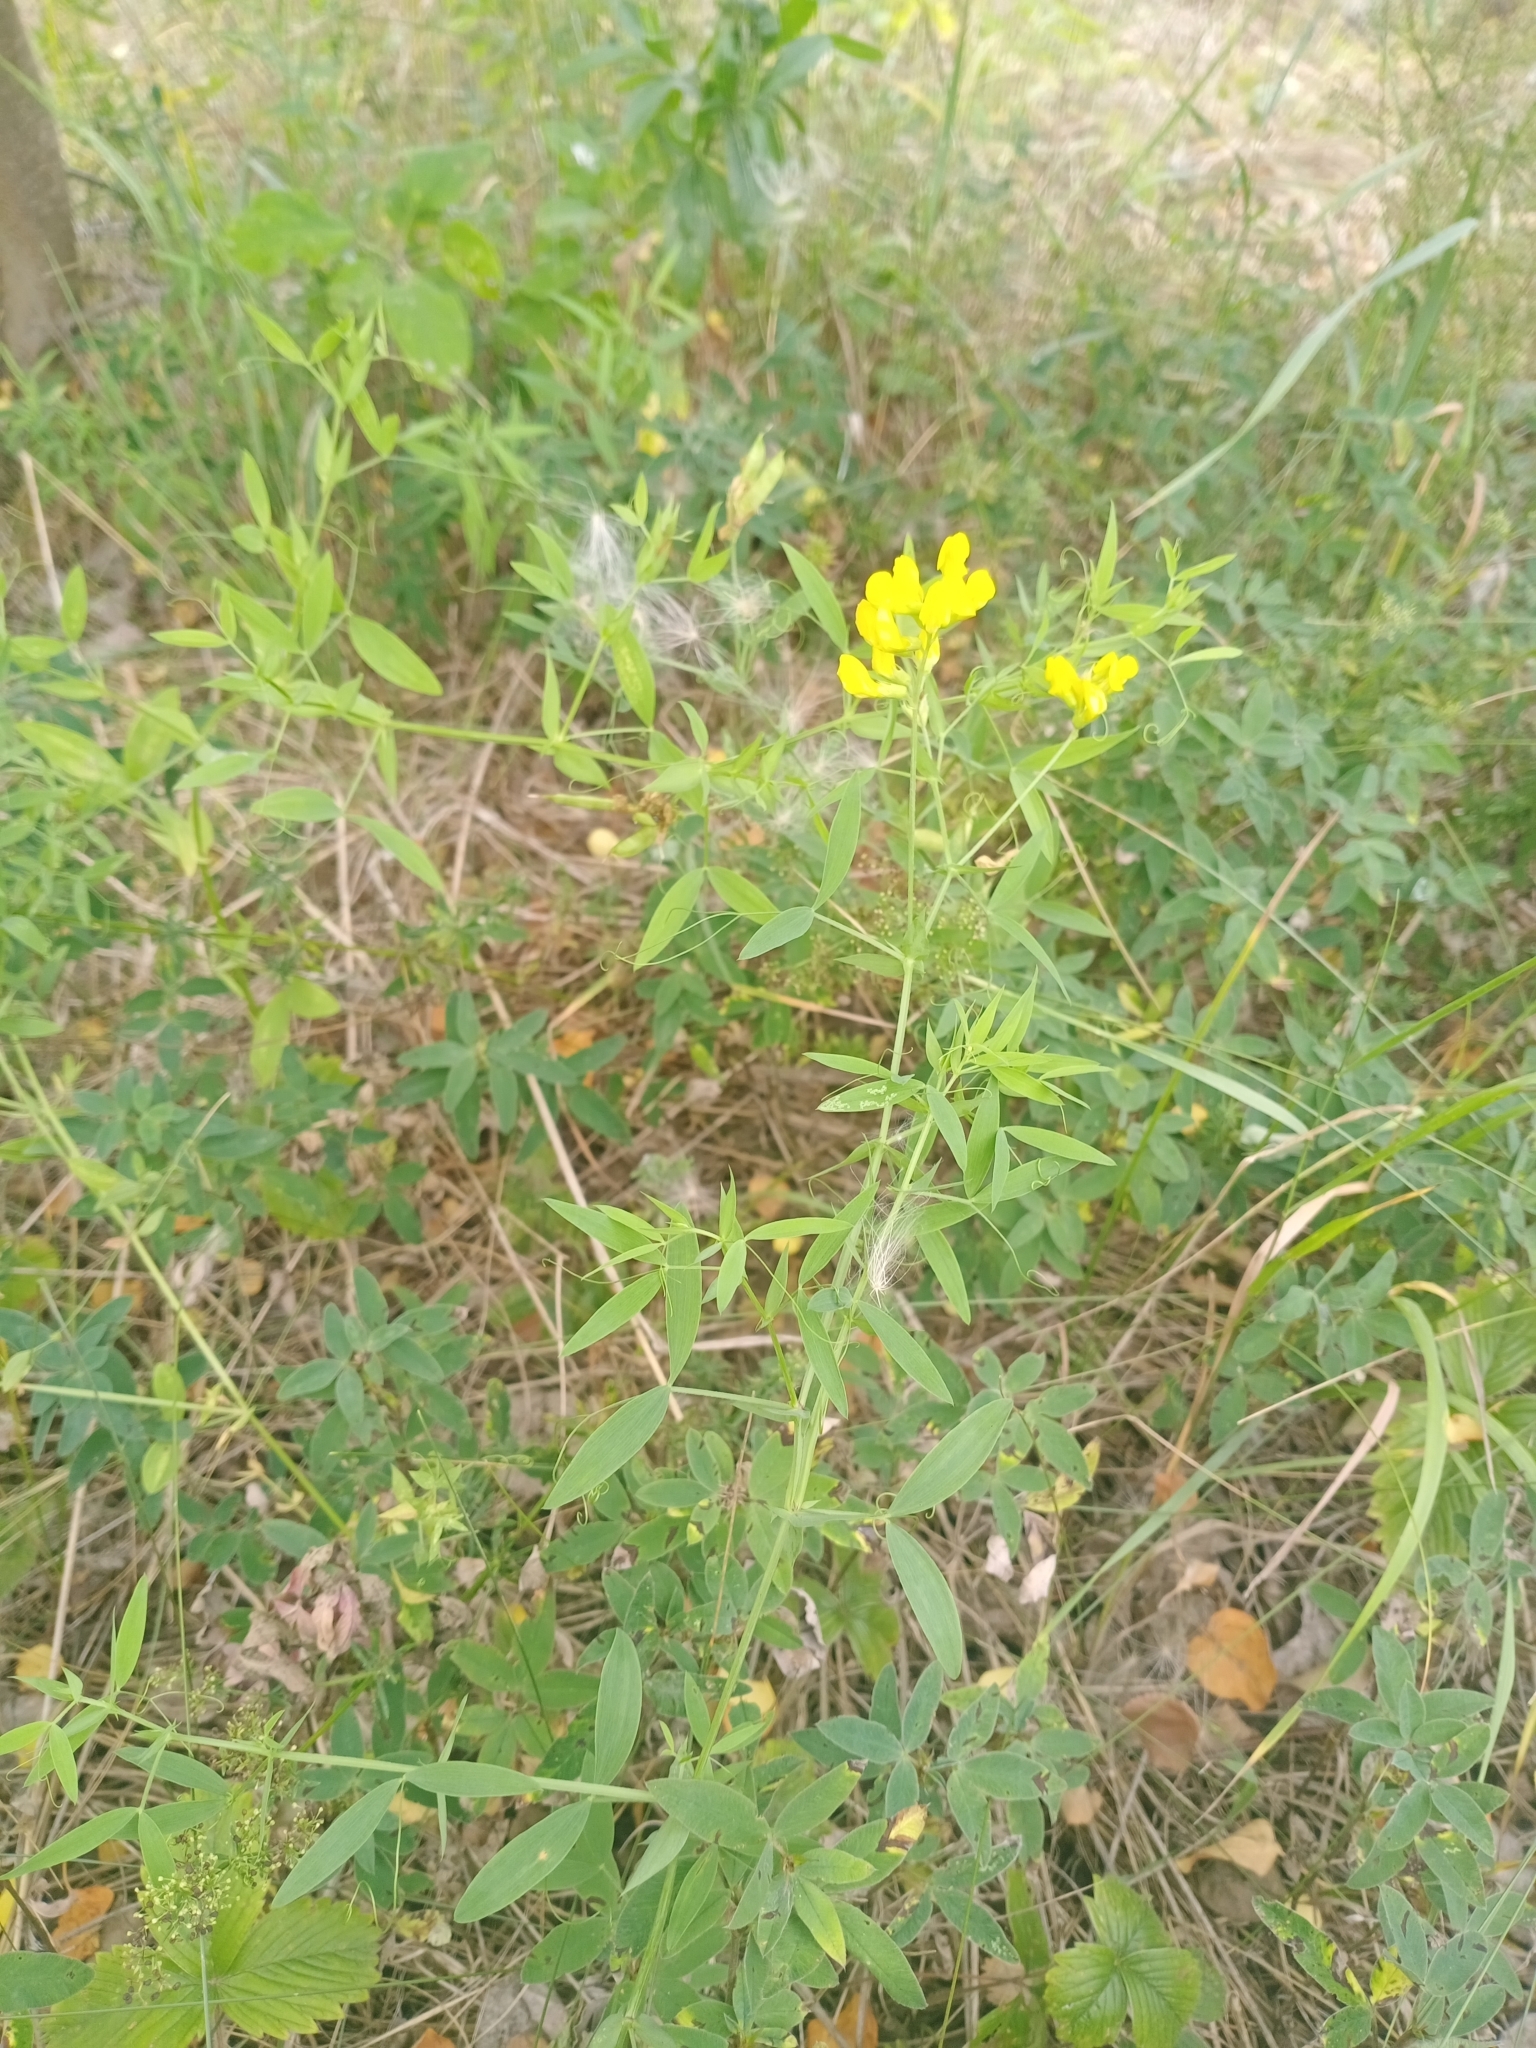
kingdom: Plantae
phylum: Tracheophyta
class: Magnoliopsida
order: Fabales
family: Fabaceae
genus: Lathyrus
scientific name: Lathyrus pratensis
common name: Meadow vetchling
